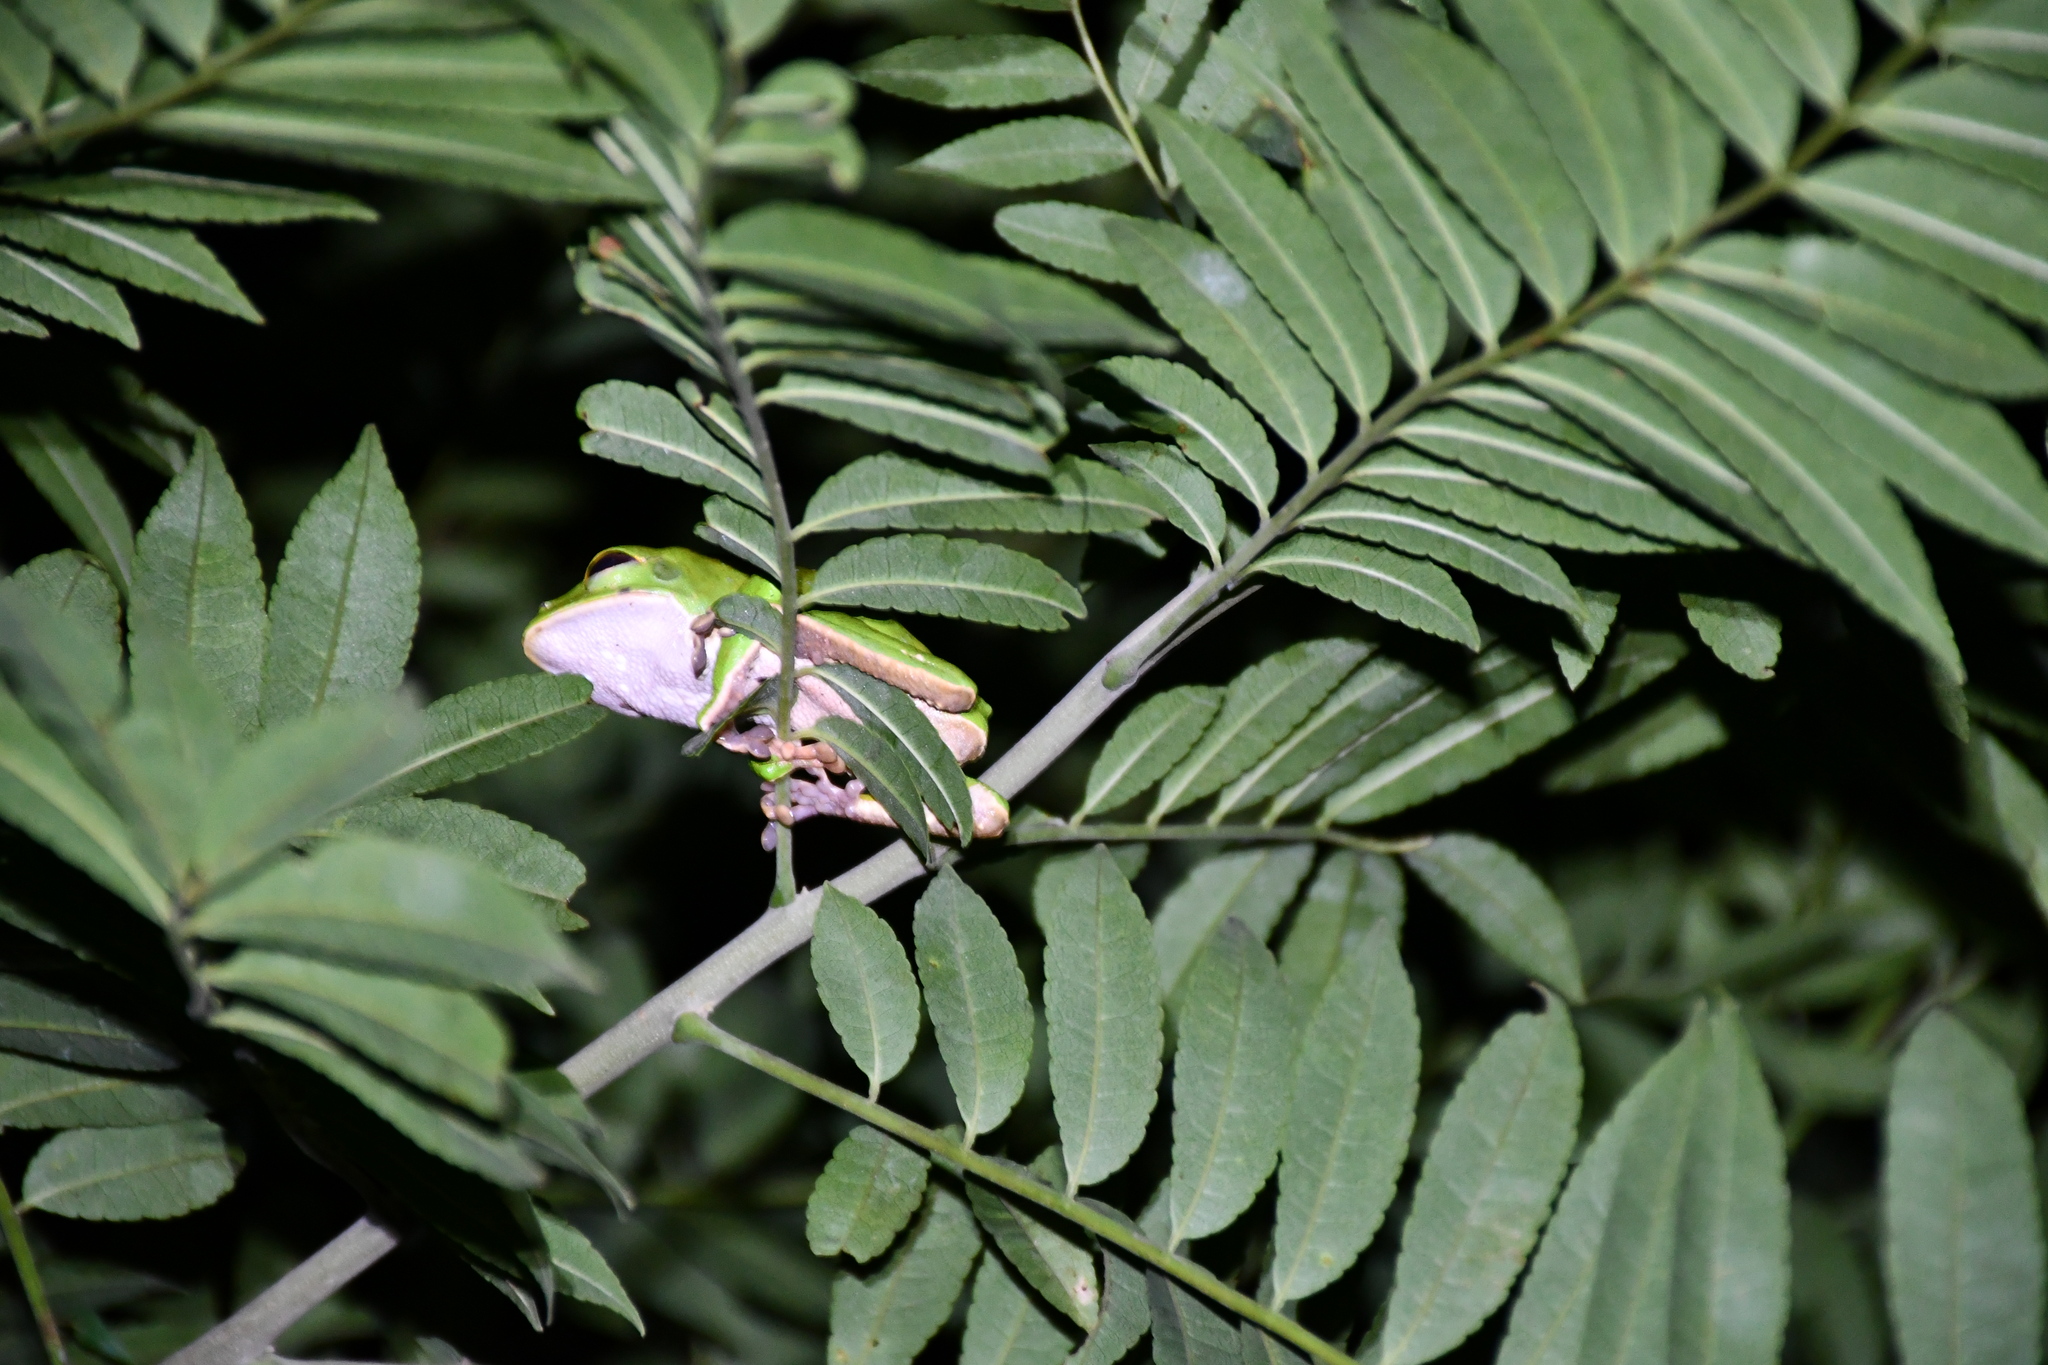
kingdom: Animalia
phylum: Chordata
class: Amphibia
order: Anura
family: Phyllomedusidae
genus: Phyllomedusa
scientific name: Phyllomedusa camba
